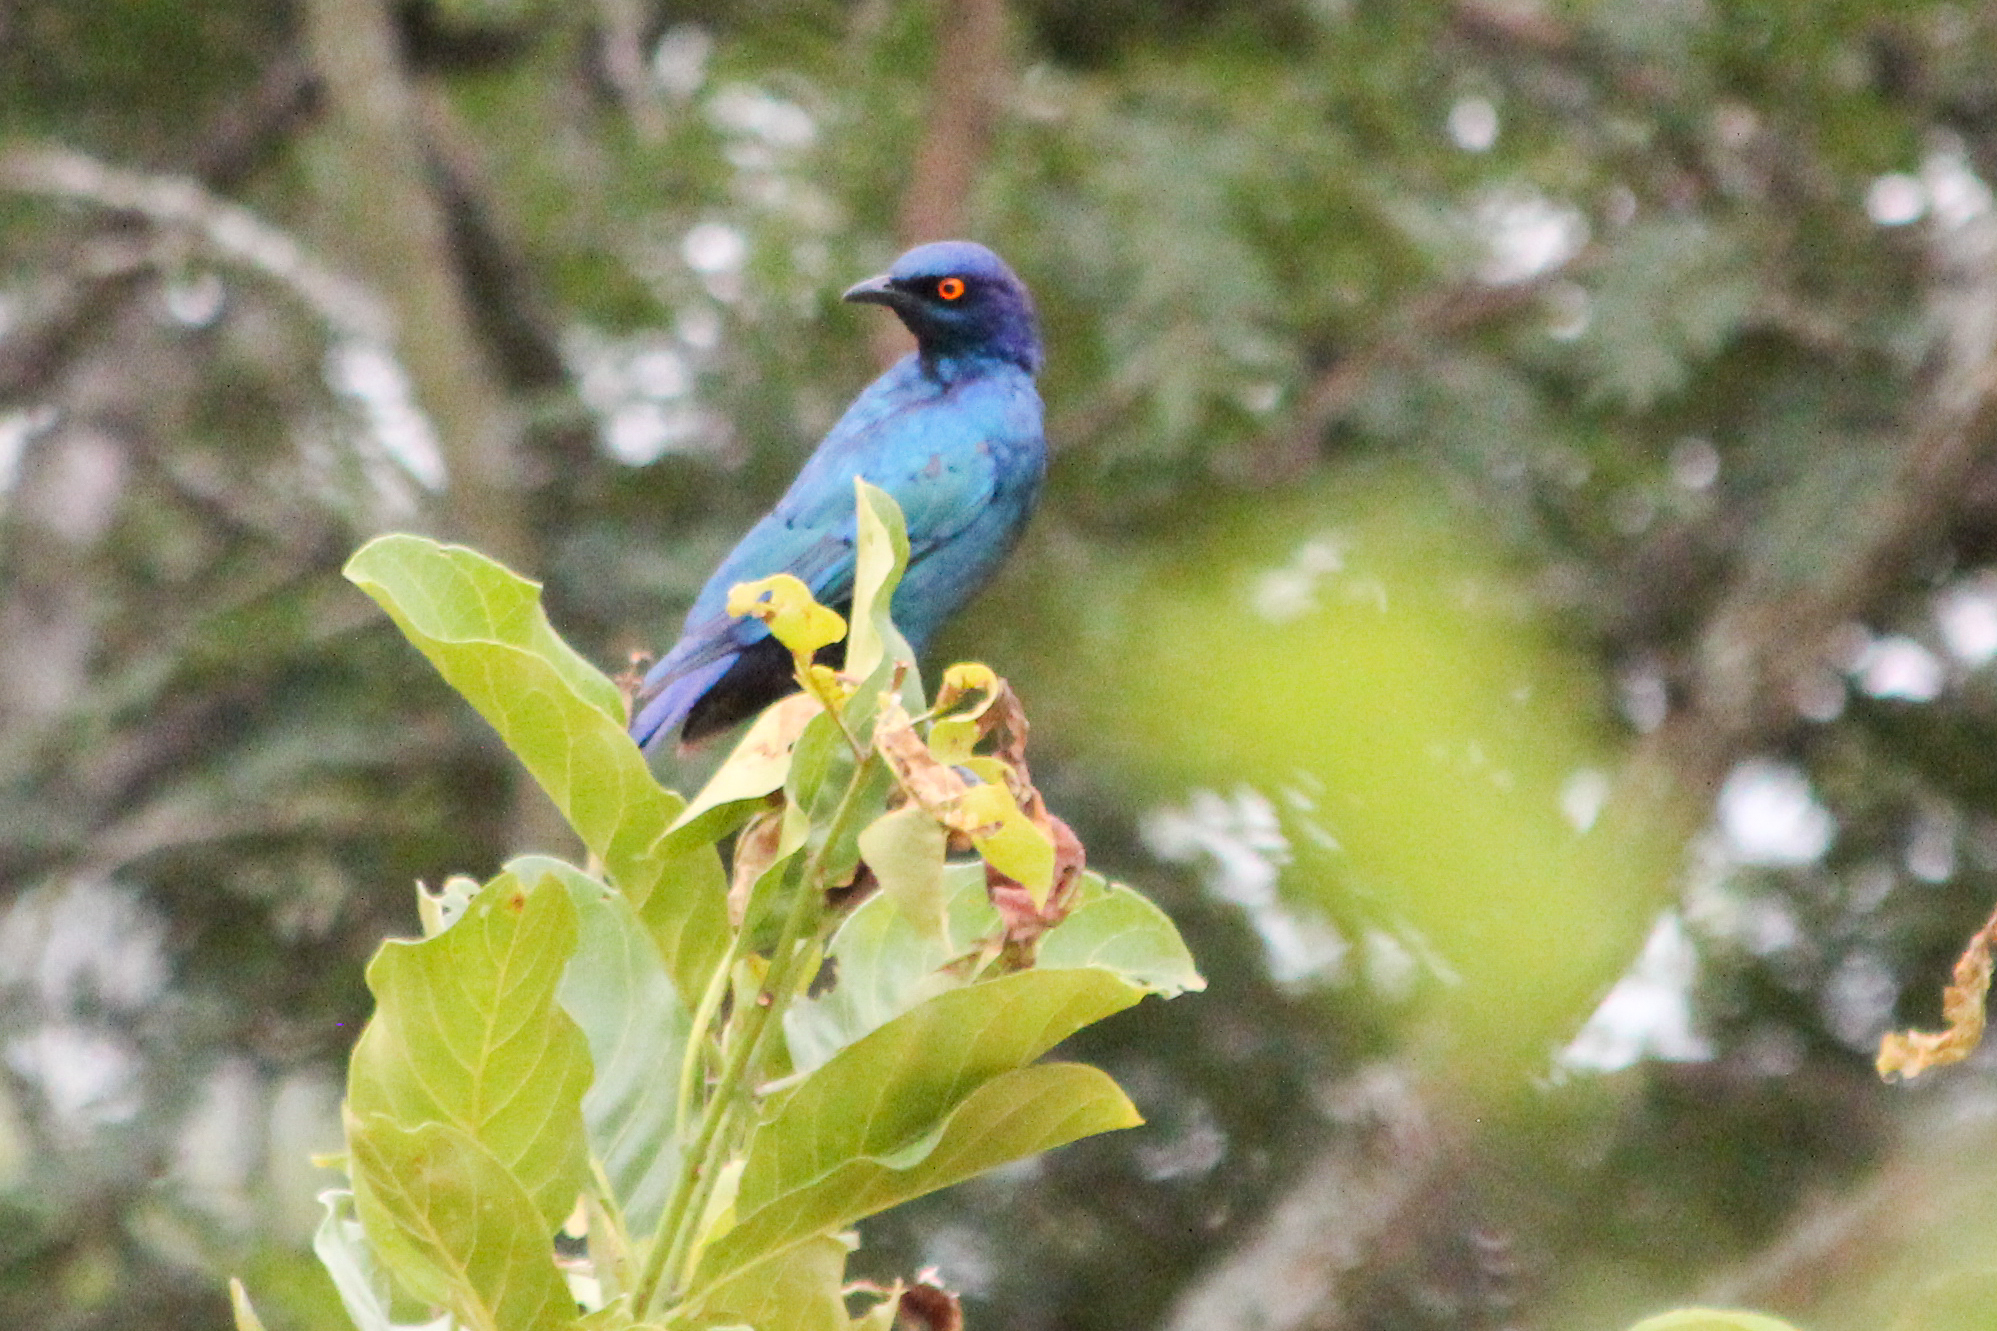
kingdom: Animalia
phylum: Chordata
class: Aves
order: Passeriformes
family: Sturnidae
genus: Lamprotornis
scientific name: Lamprotornis nitens
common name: Cape starling
